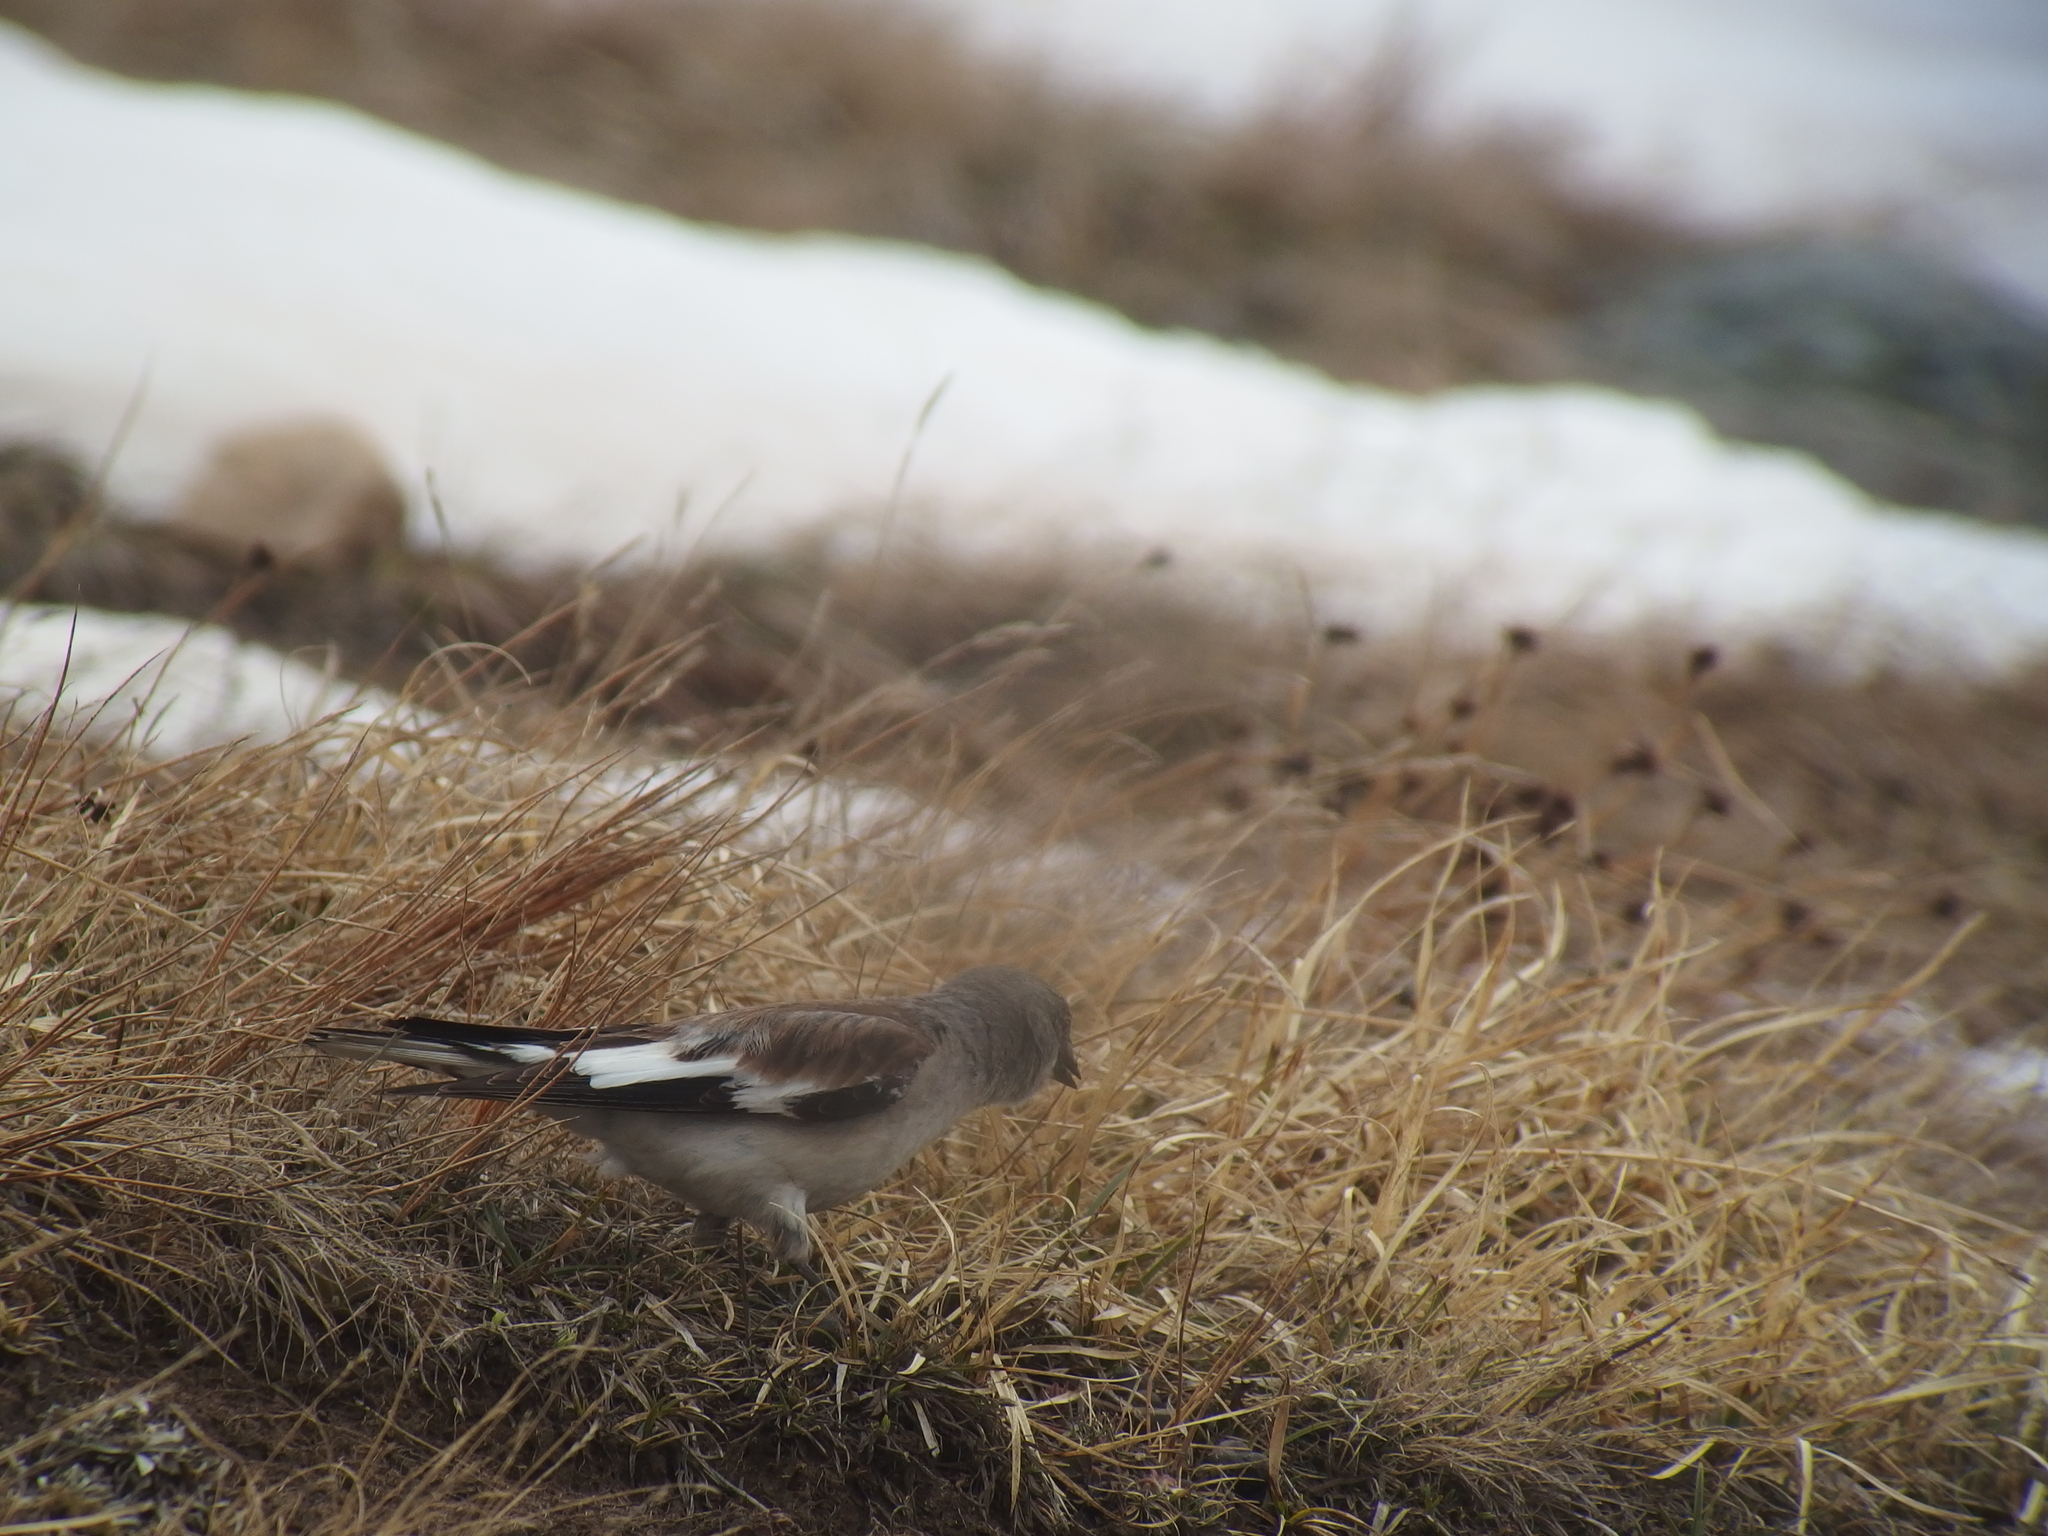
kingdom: Animalia
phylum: Chordata
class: Aves
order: Passeriformes
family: Passeridae
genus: Montifringilla
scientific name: Montifringilla nivalis
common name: White-winged snowfinch
